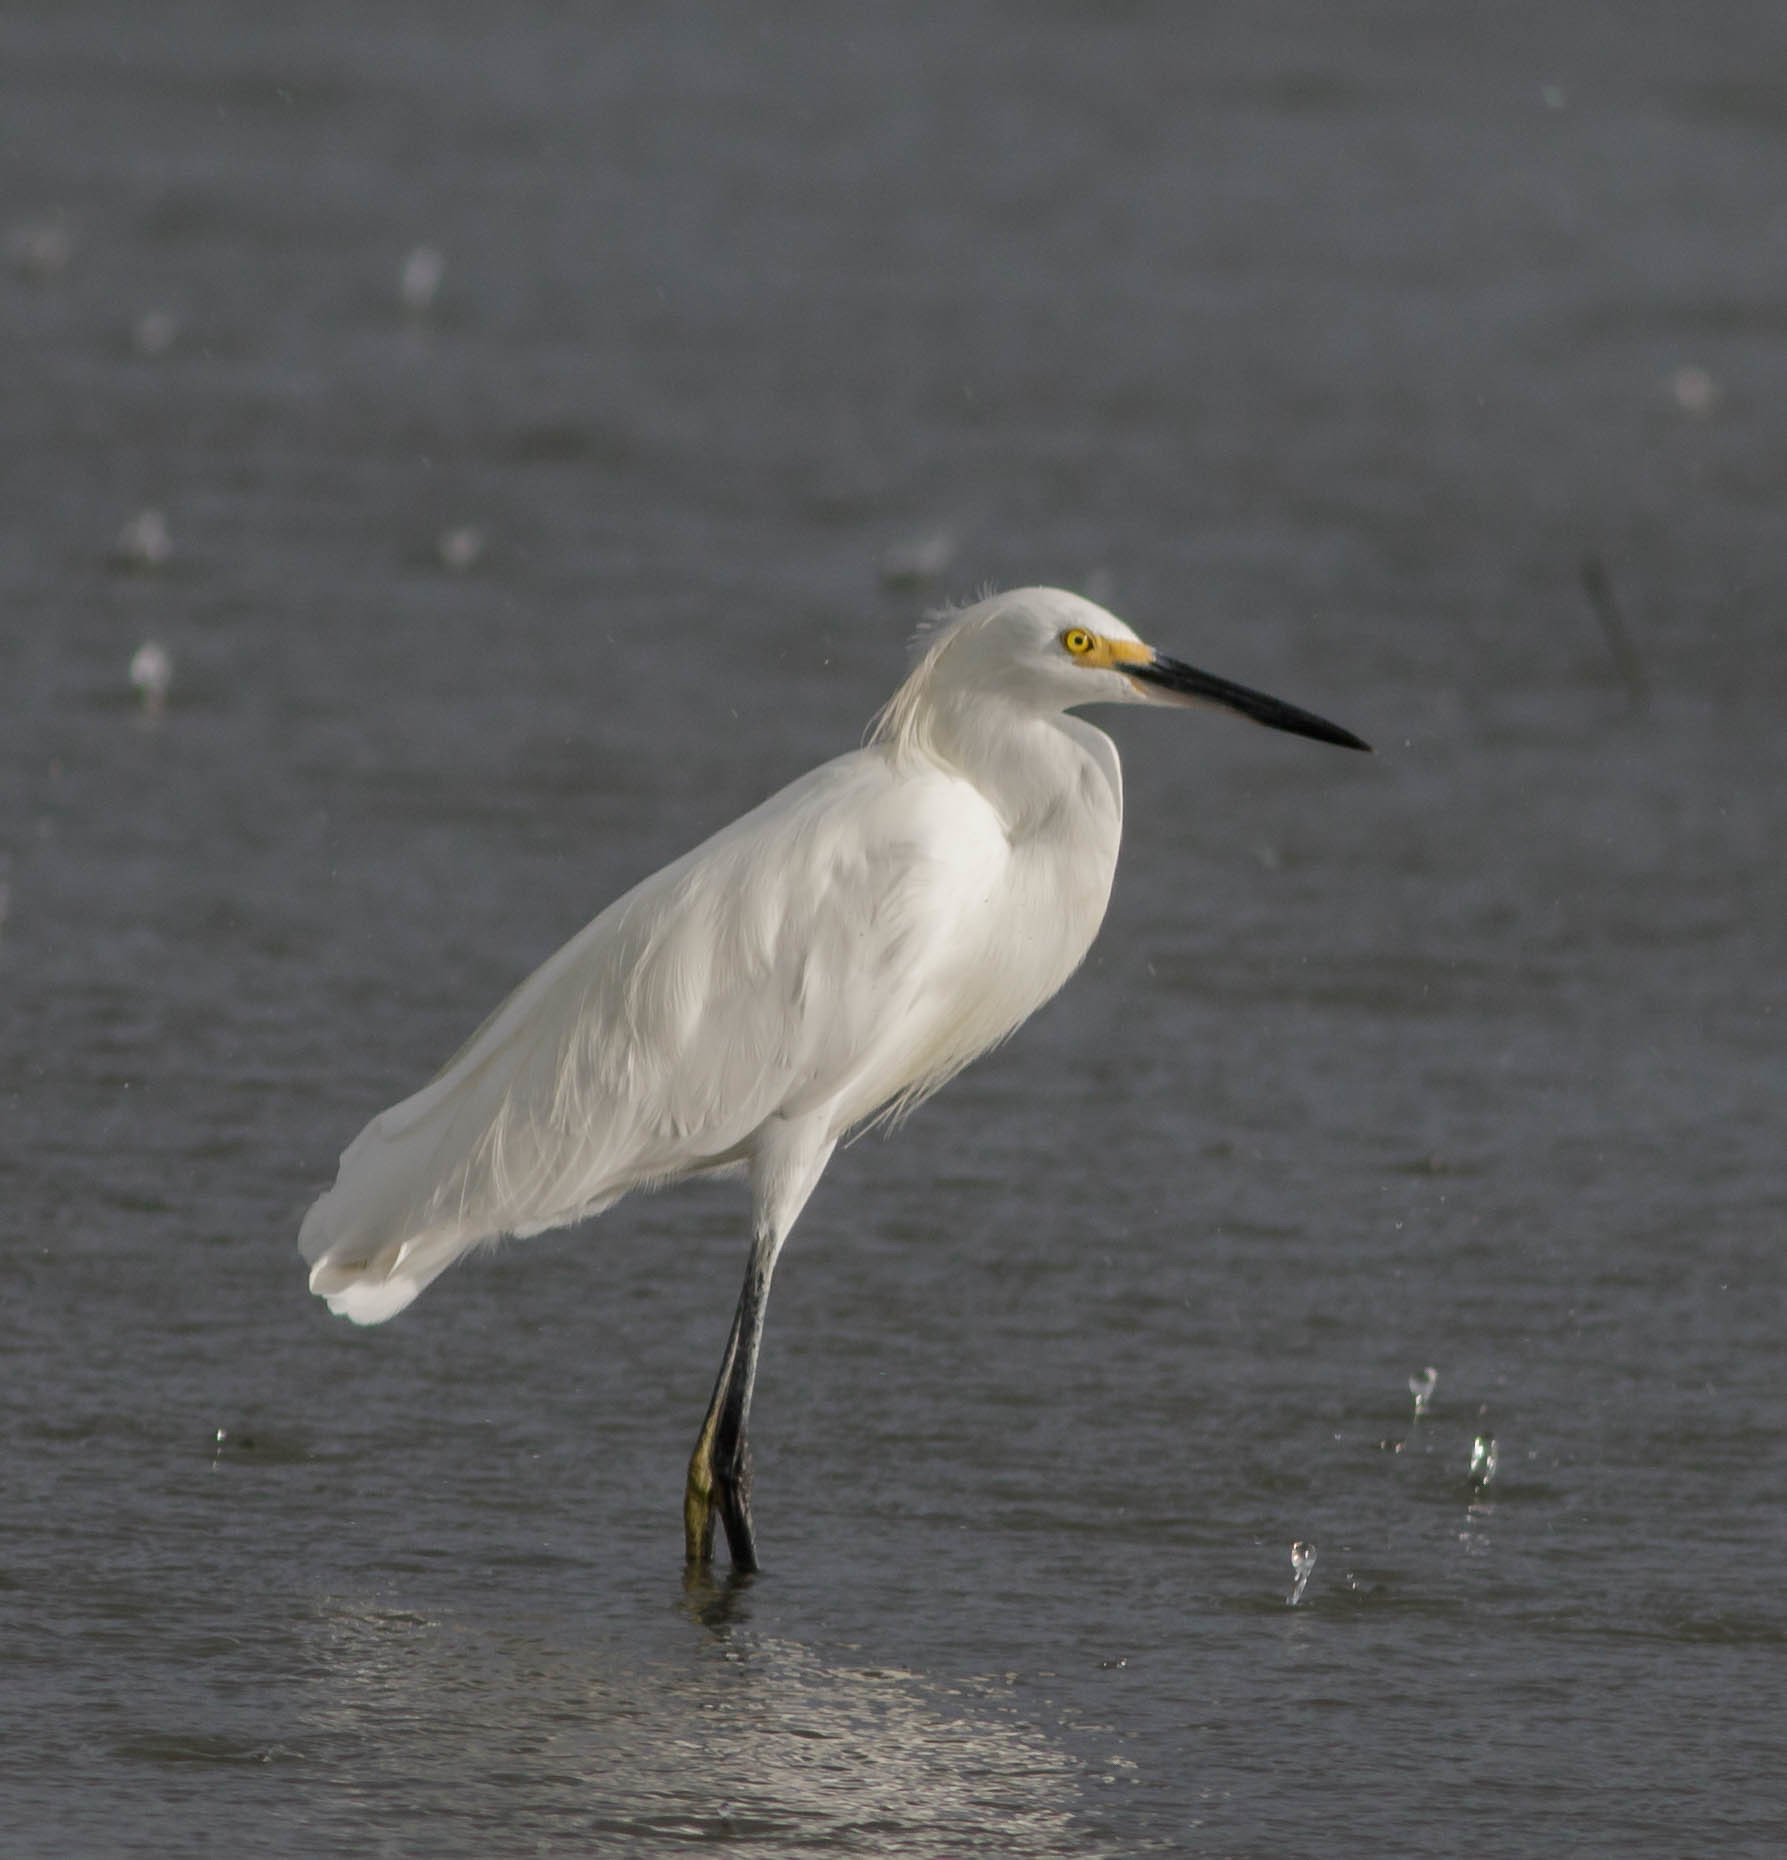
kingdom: Animalia
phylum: Chordata
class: Aves
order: Pelecaniformes
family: Ardeidae
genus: Egretta
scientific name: Egretta thula
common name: Snowy egret
